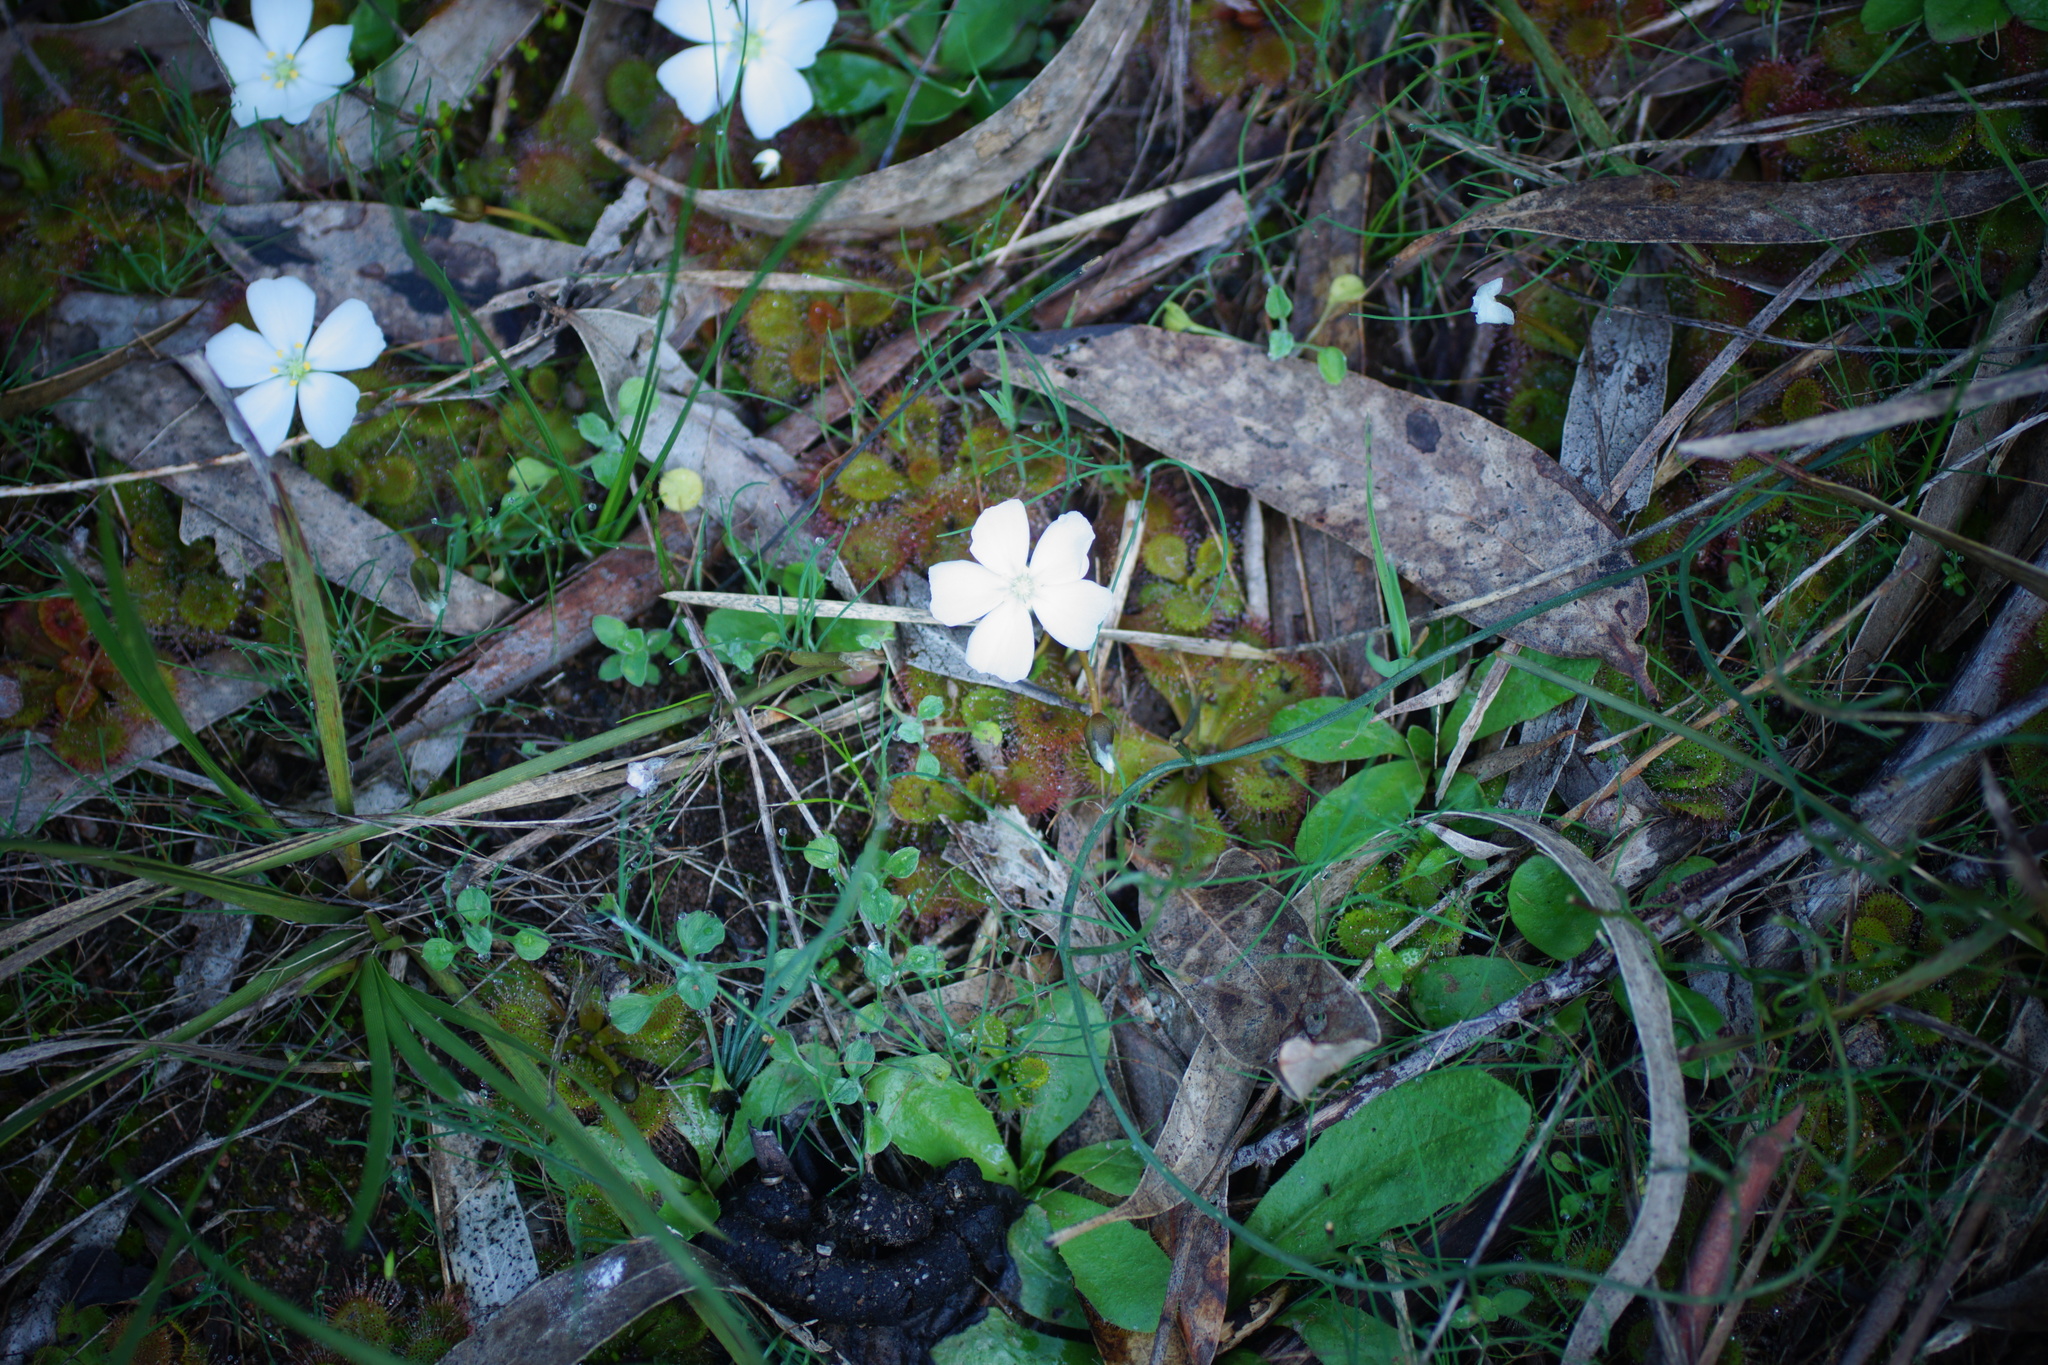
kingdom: Plantae
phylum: Tracheophyta
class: Magnoliopsida
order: Caryophyllales
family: Droseraceae
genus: Drosera
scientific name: Drosera aberrans
